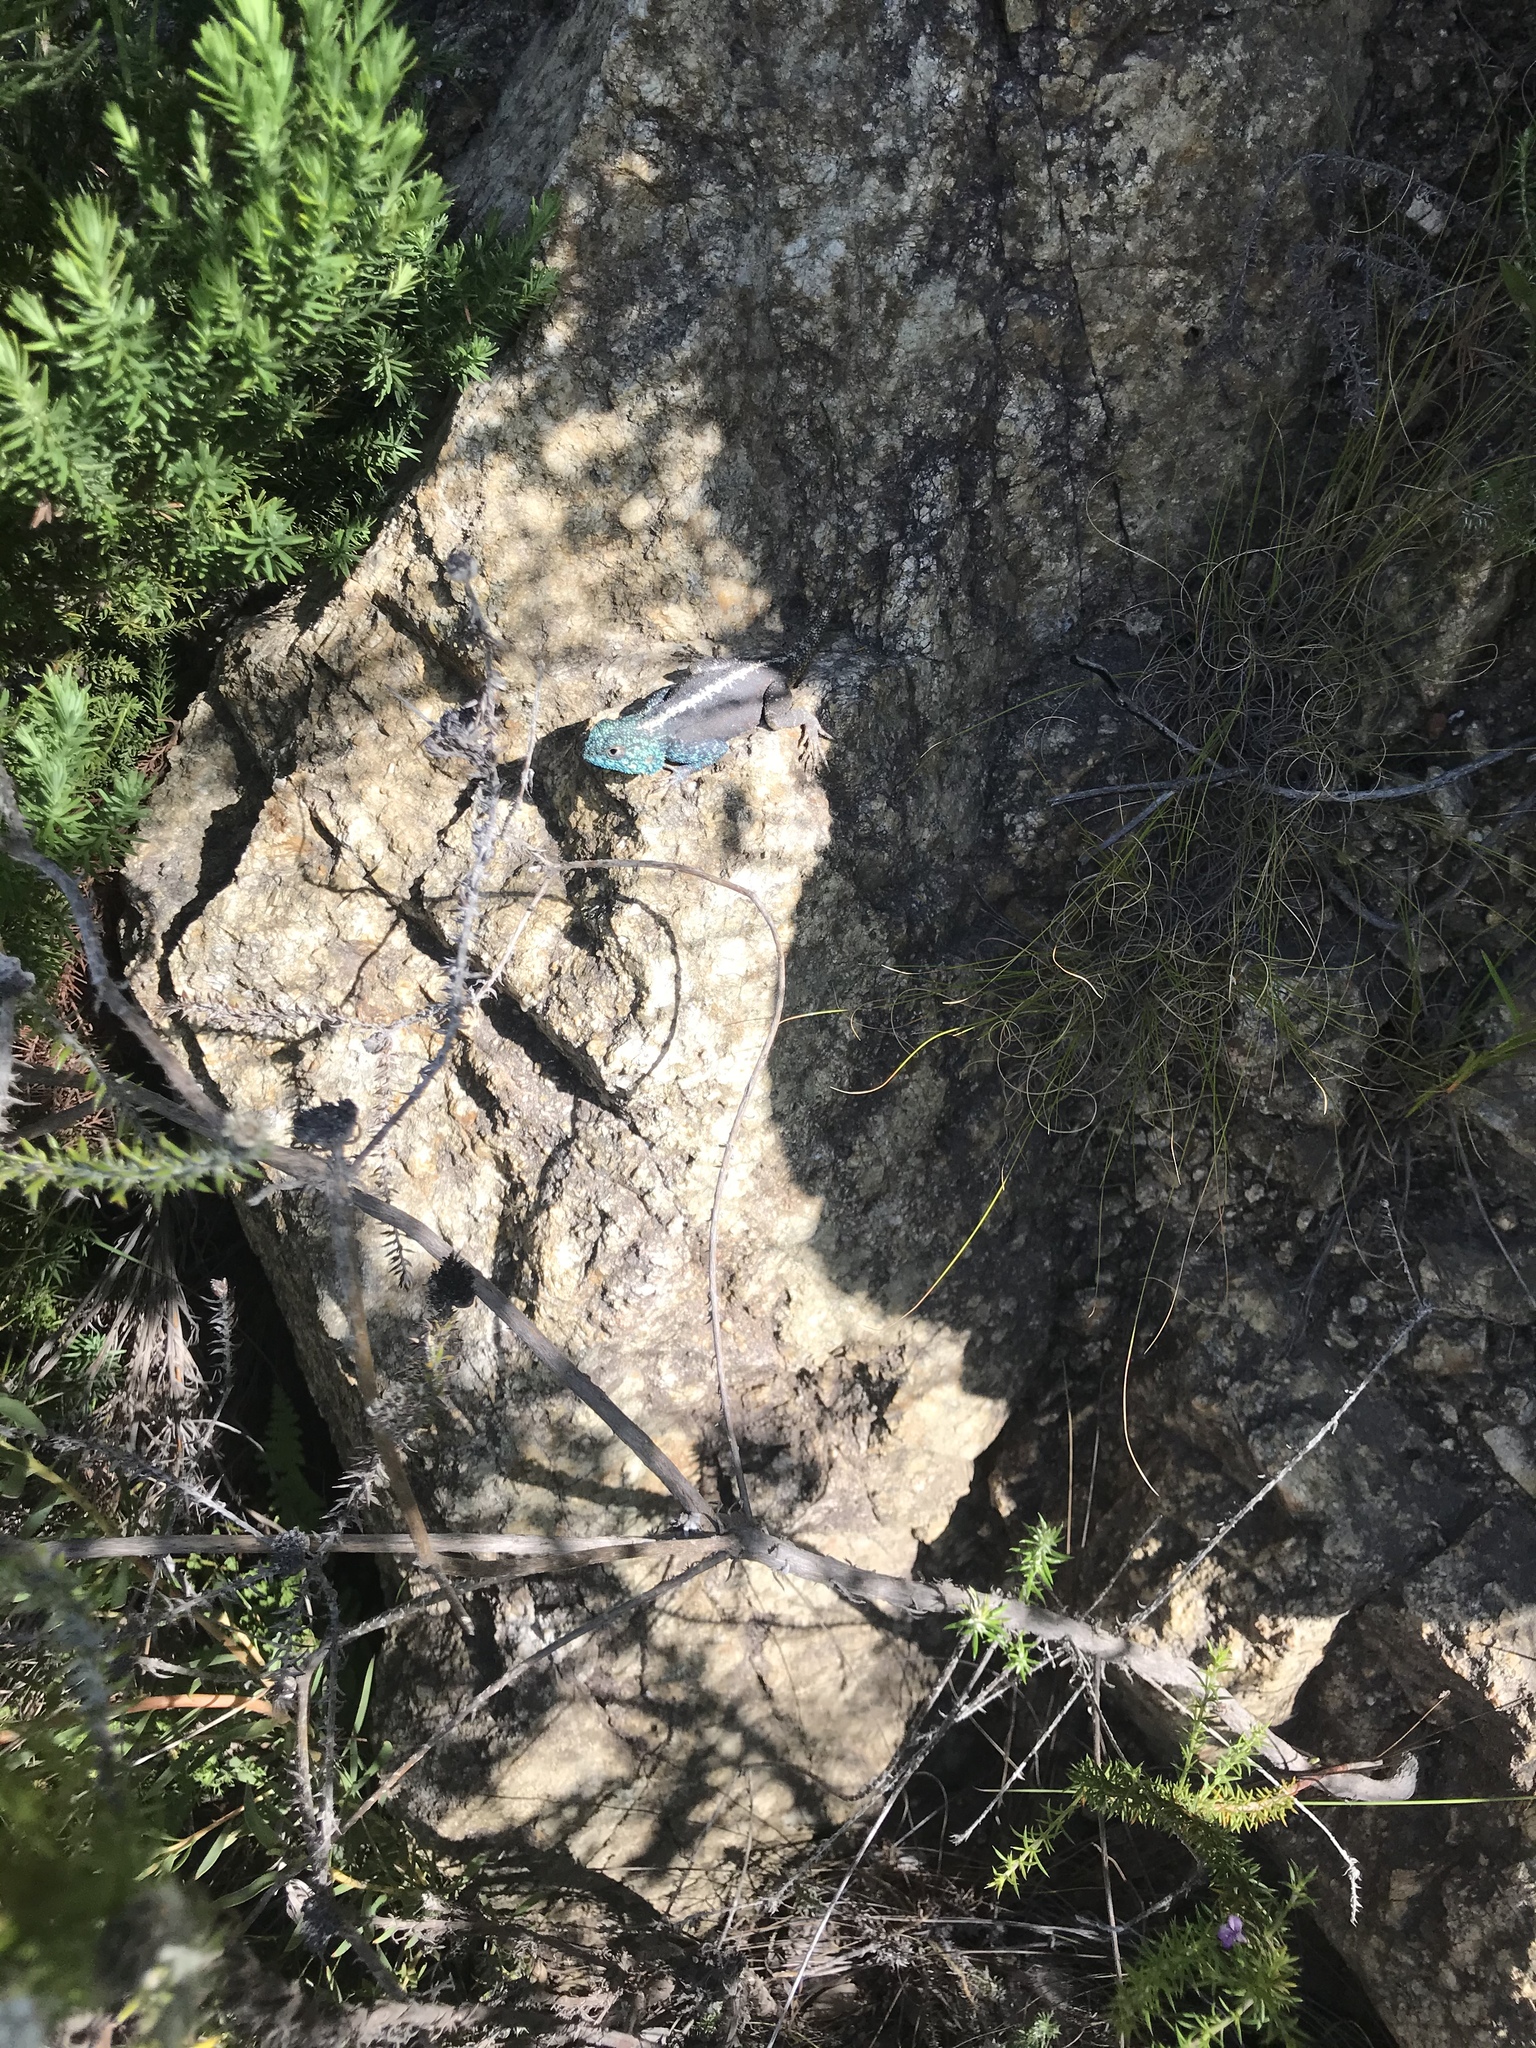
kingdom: Animalia
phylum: Chordata
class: Squamata
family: Agamidae
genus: Agama
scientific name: Agama atra
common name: Southern african rock agama
